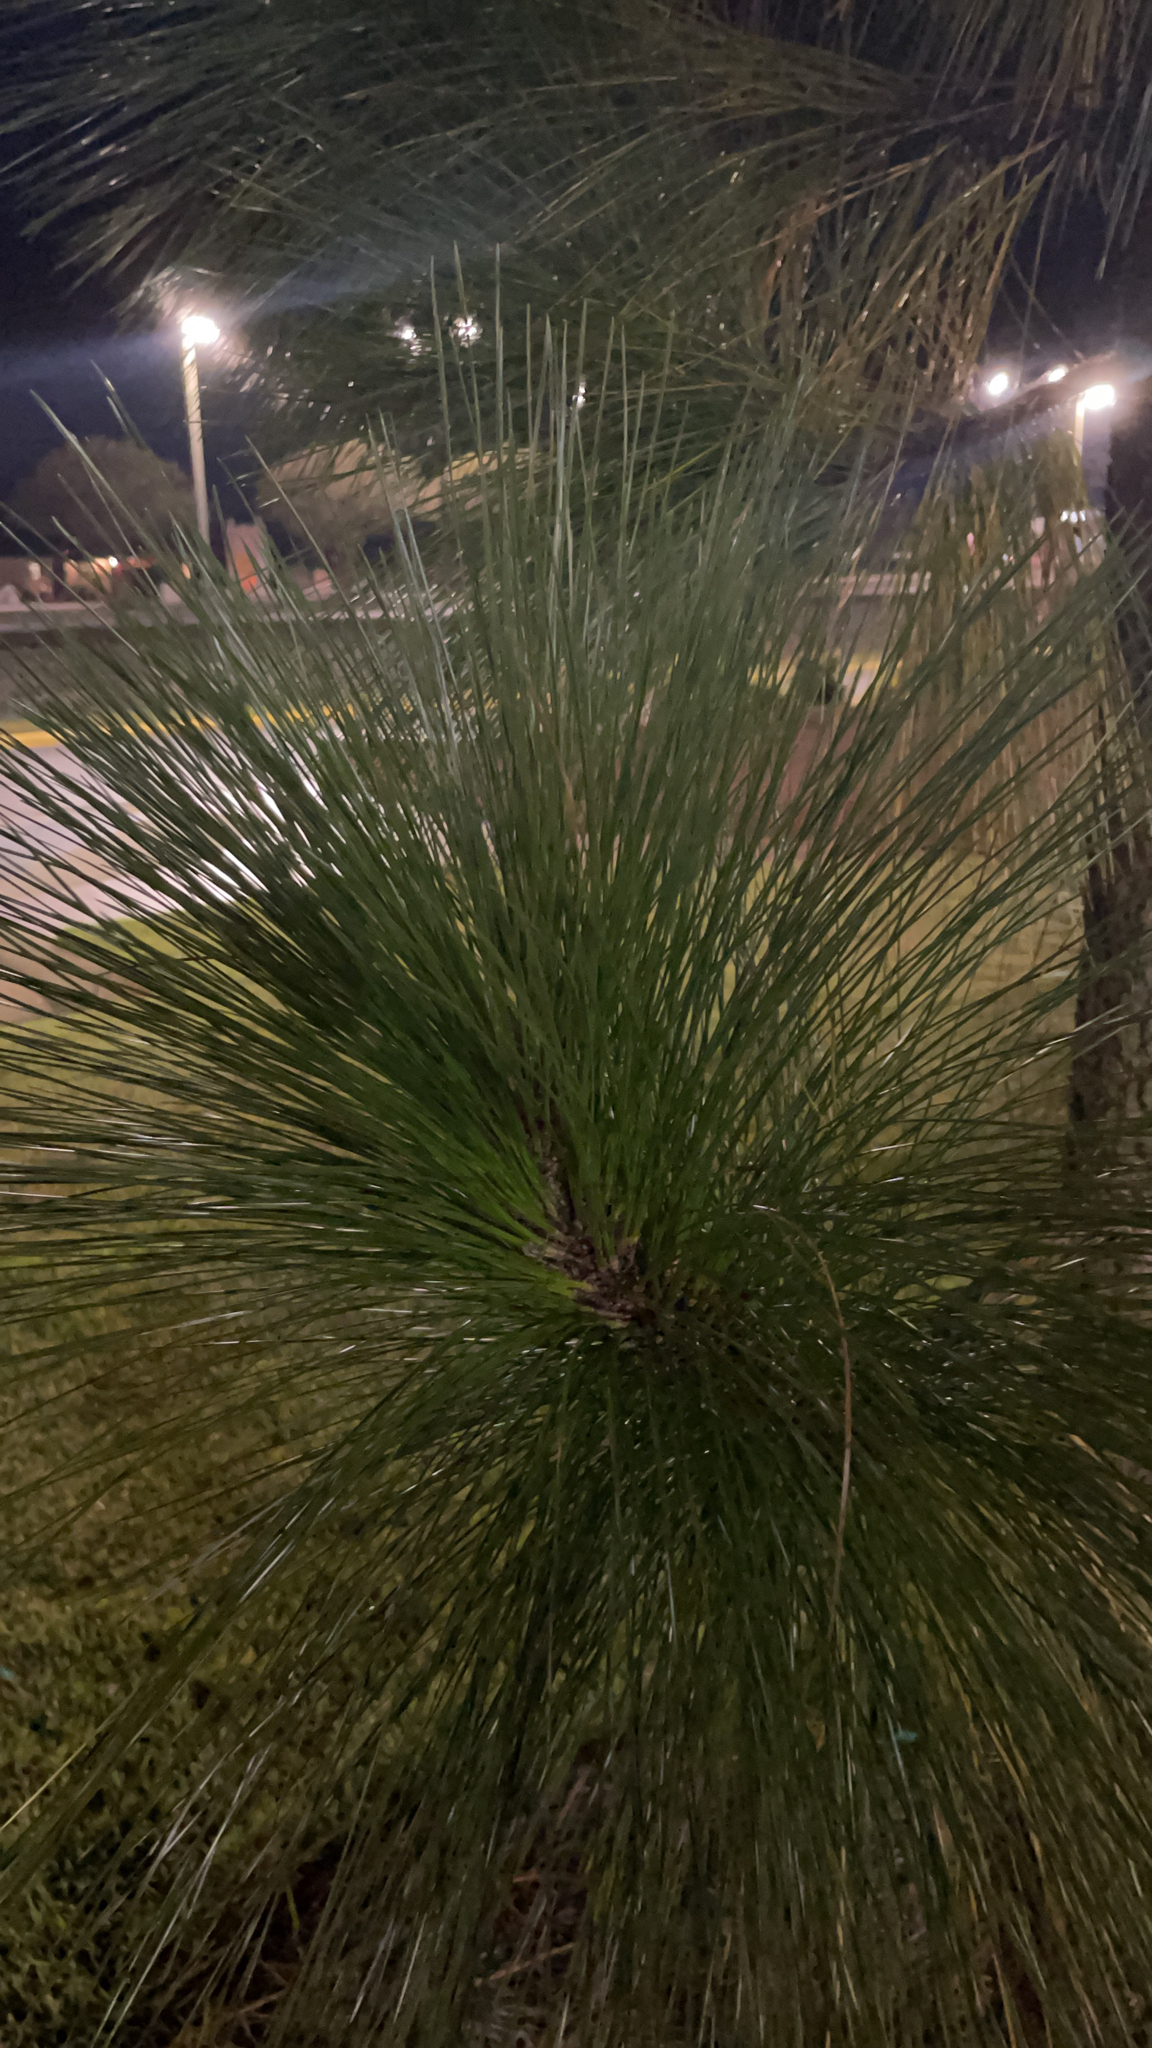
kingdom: Plantae
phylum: Tracheophyta
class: Pinopsida
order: Pinales
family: Pinaceae
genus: Pinus
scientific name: Pinus palustris
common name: Longleaf pine
